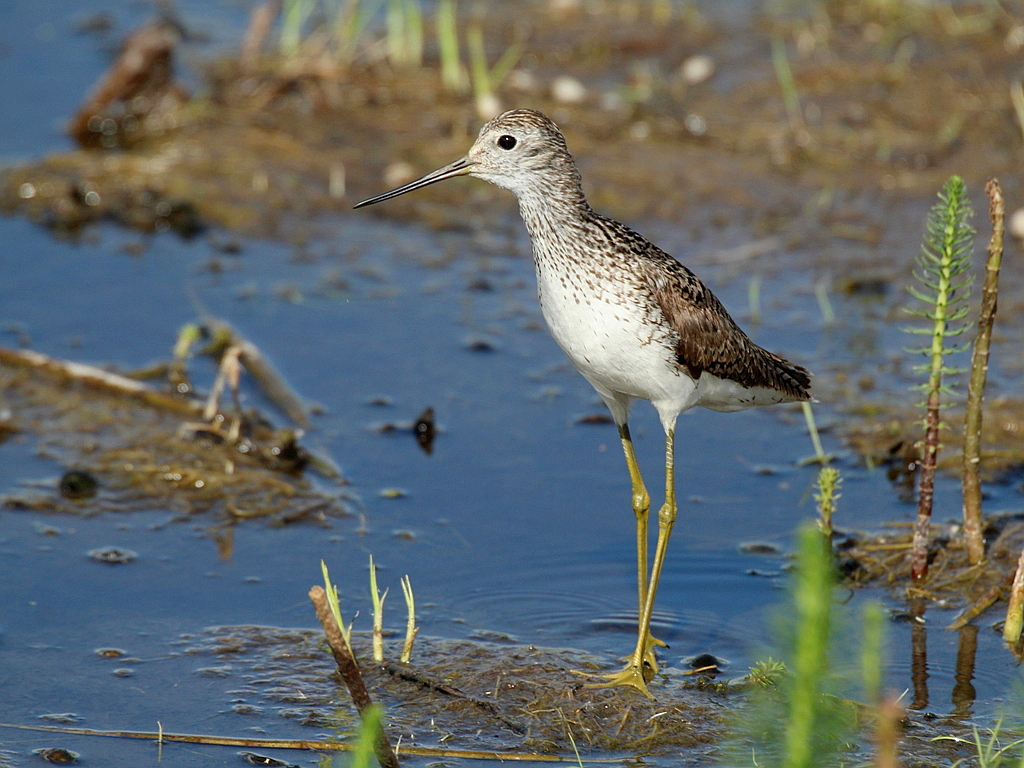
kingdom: Animalia
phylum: Chordata
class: Aves
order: Charadriiformes
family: Scolopacidae
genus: Tringa
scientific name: Tringa stagnatilis
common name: Marsh sandpiper
